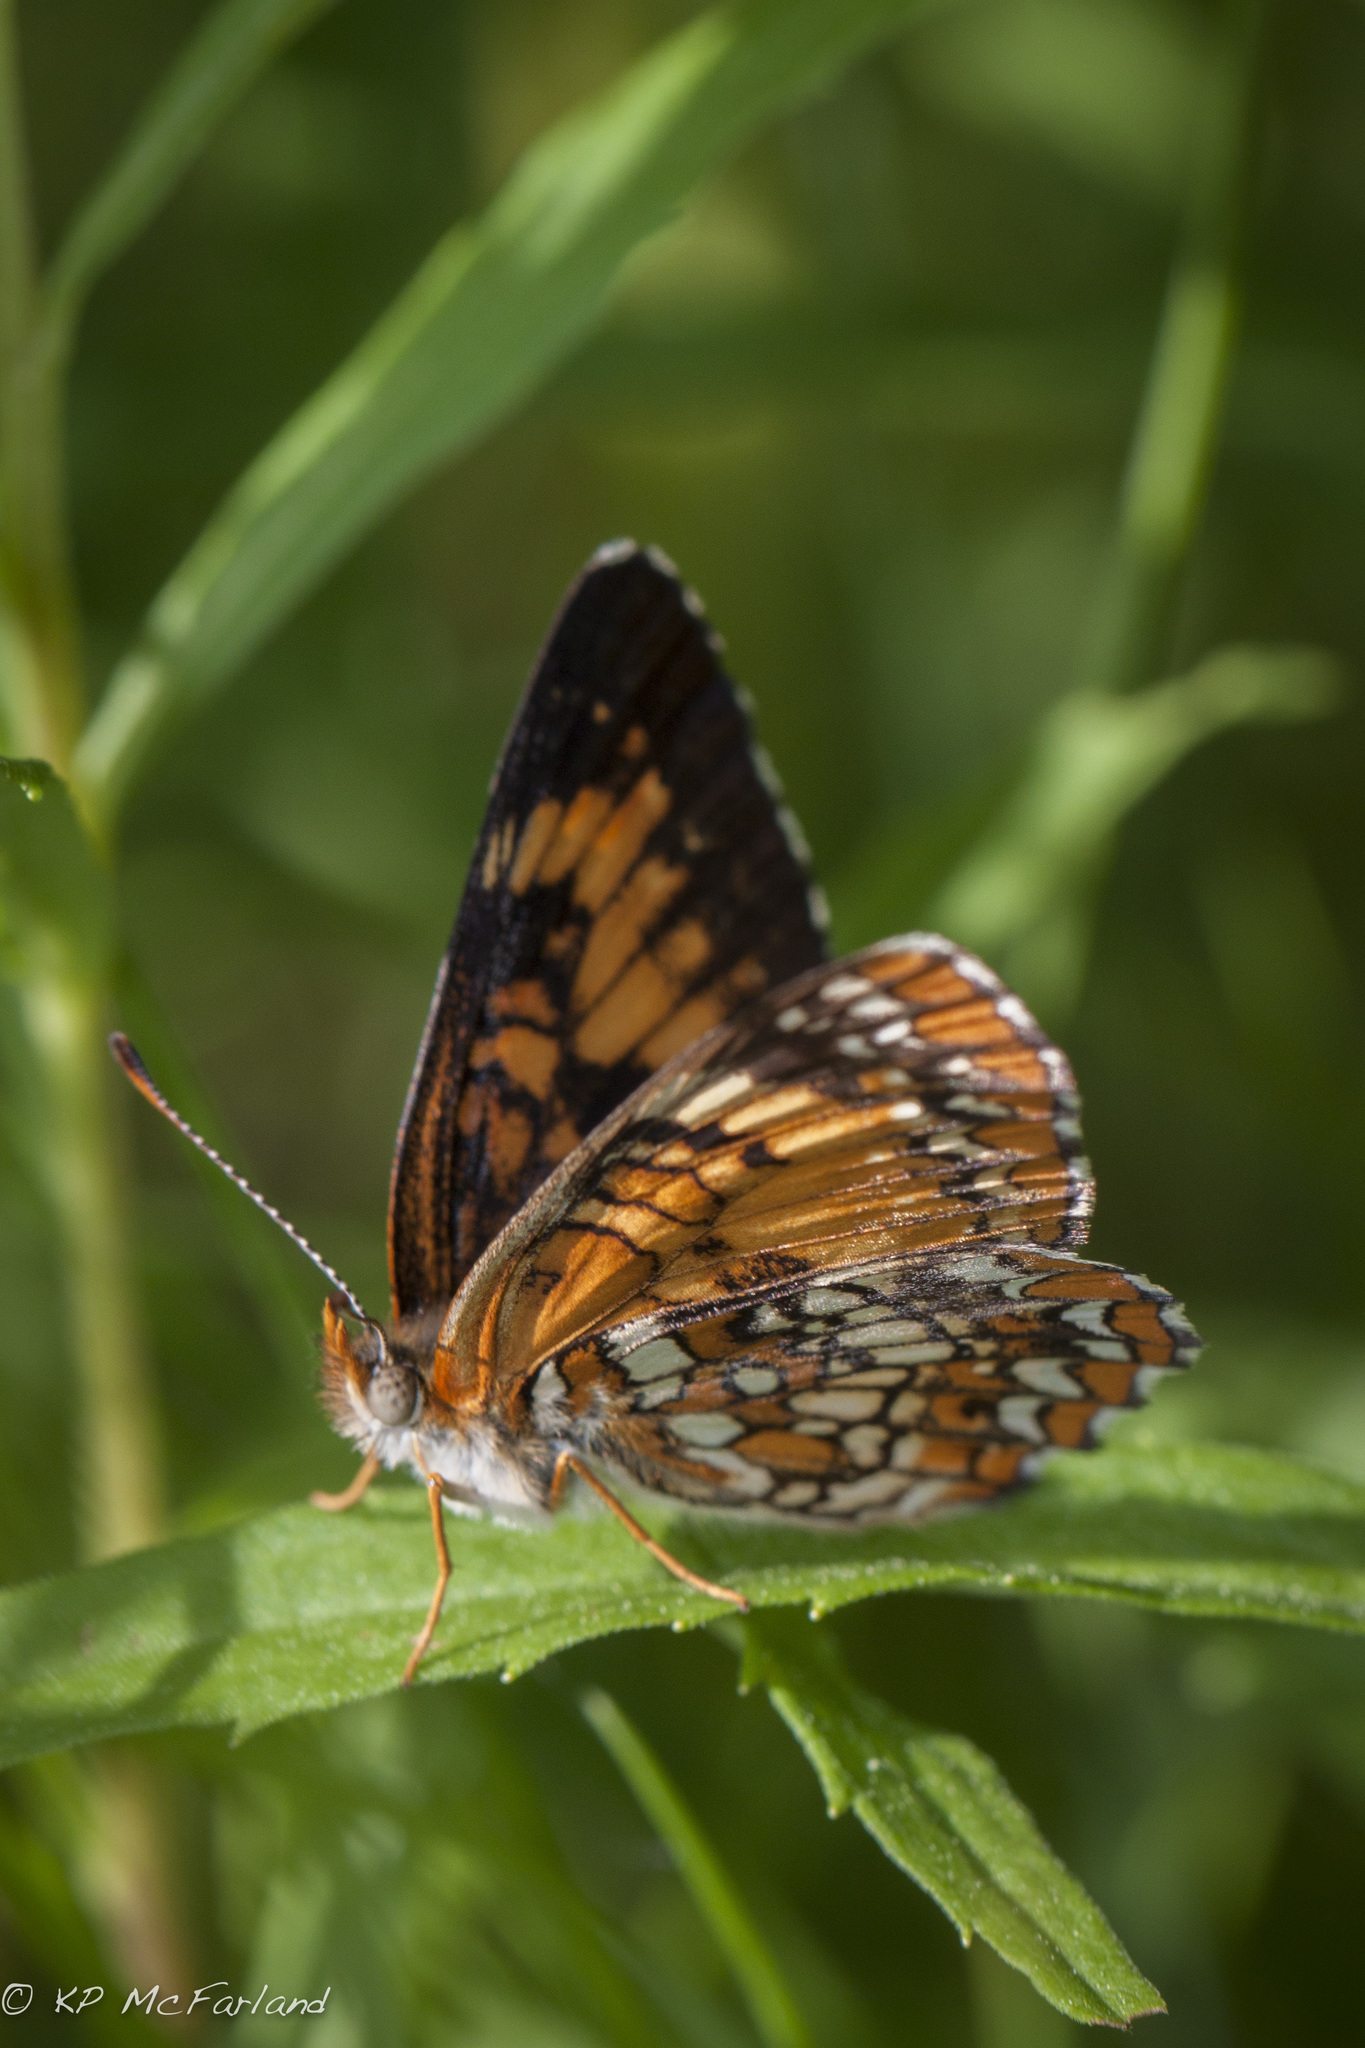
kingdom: Animalia
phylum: Arthropoda
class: Insecta
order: Lepidoptera
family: Nymphalidae
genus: Chlosyne
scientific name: Chlosyne harrisii
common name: Harris's checkerspot
